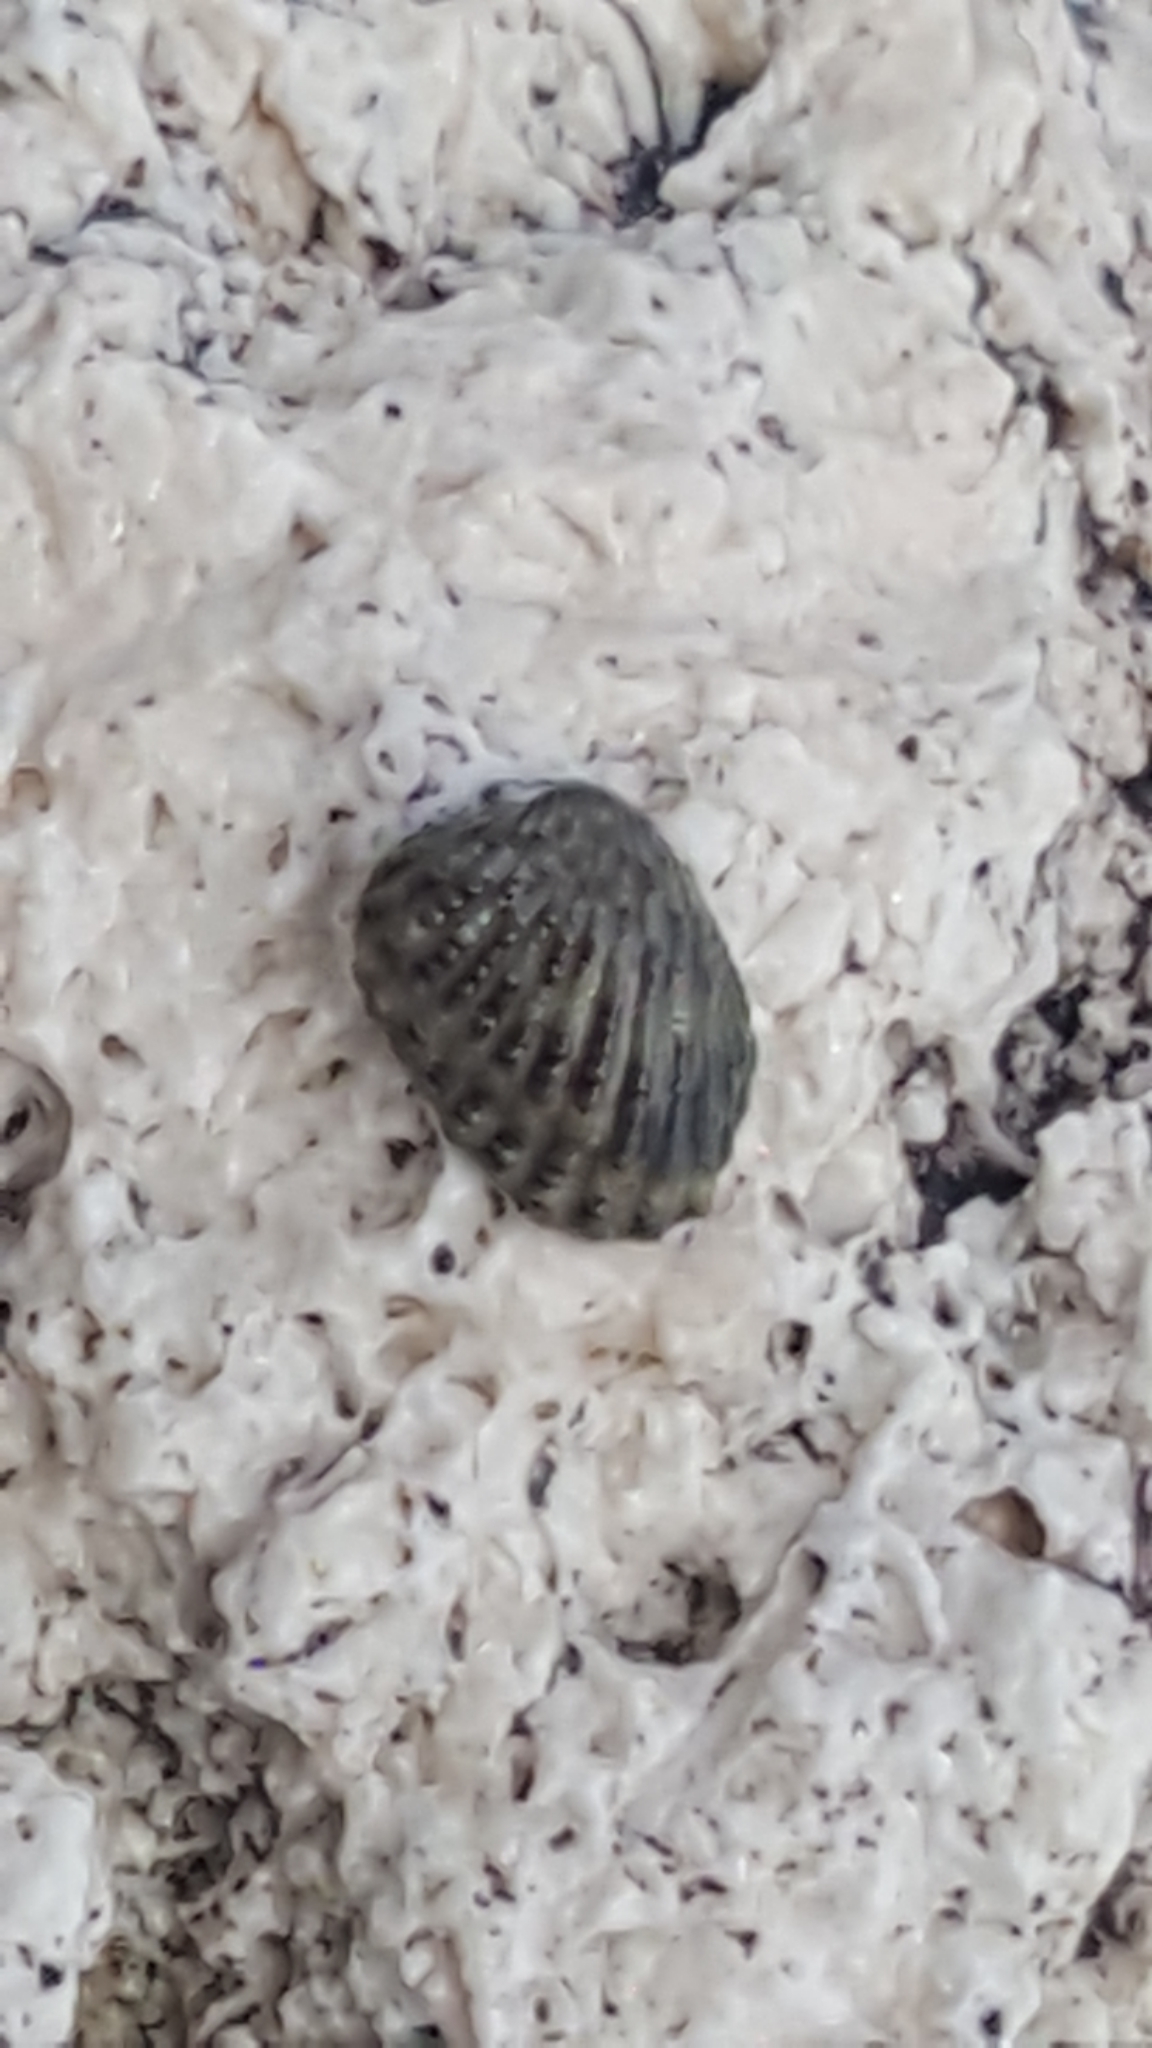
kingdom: Animalia
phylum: Mollusca
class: Bivalvia
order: Carditida
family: Carditidae
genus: Cardites
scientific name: Cardites floridanus
